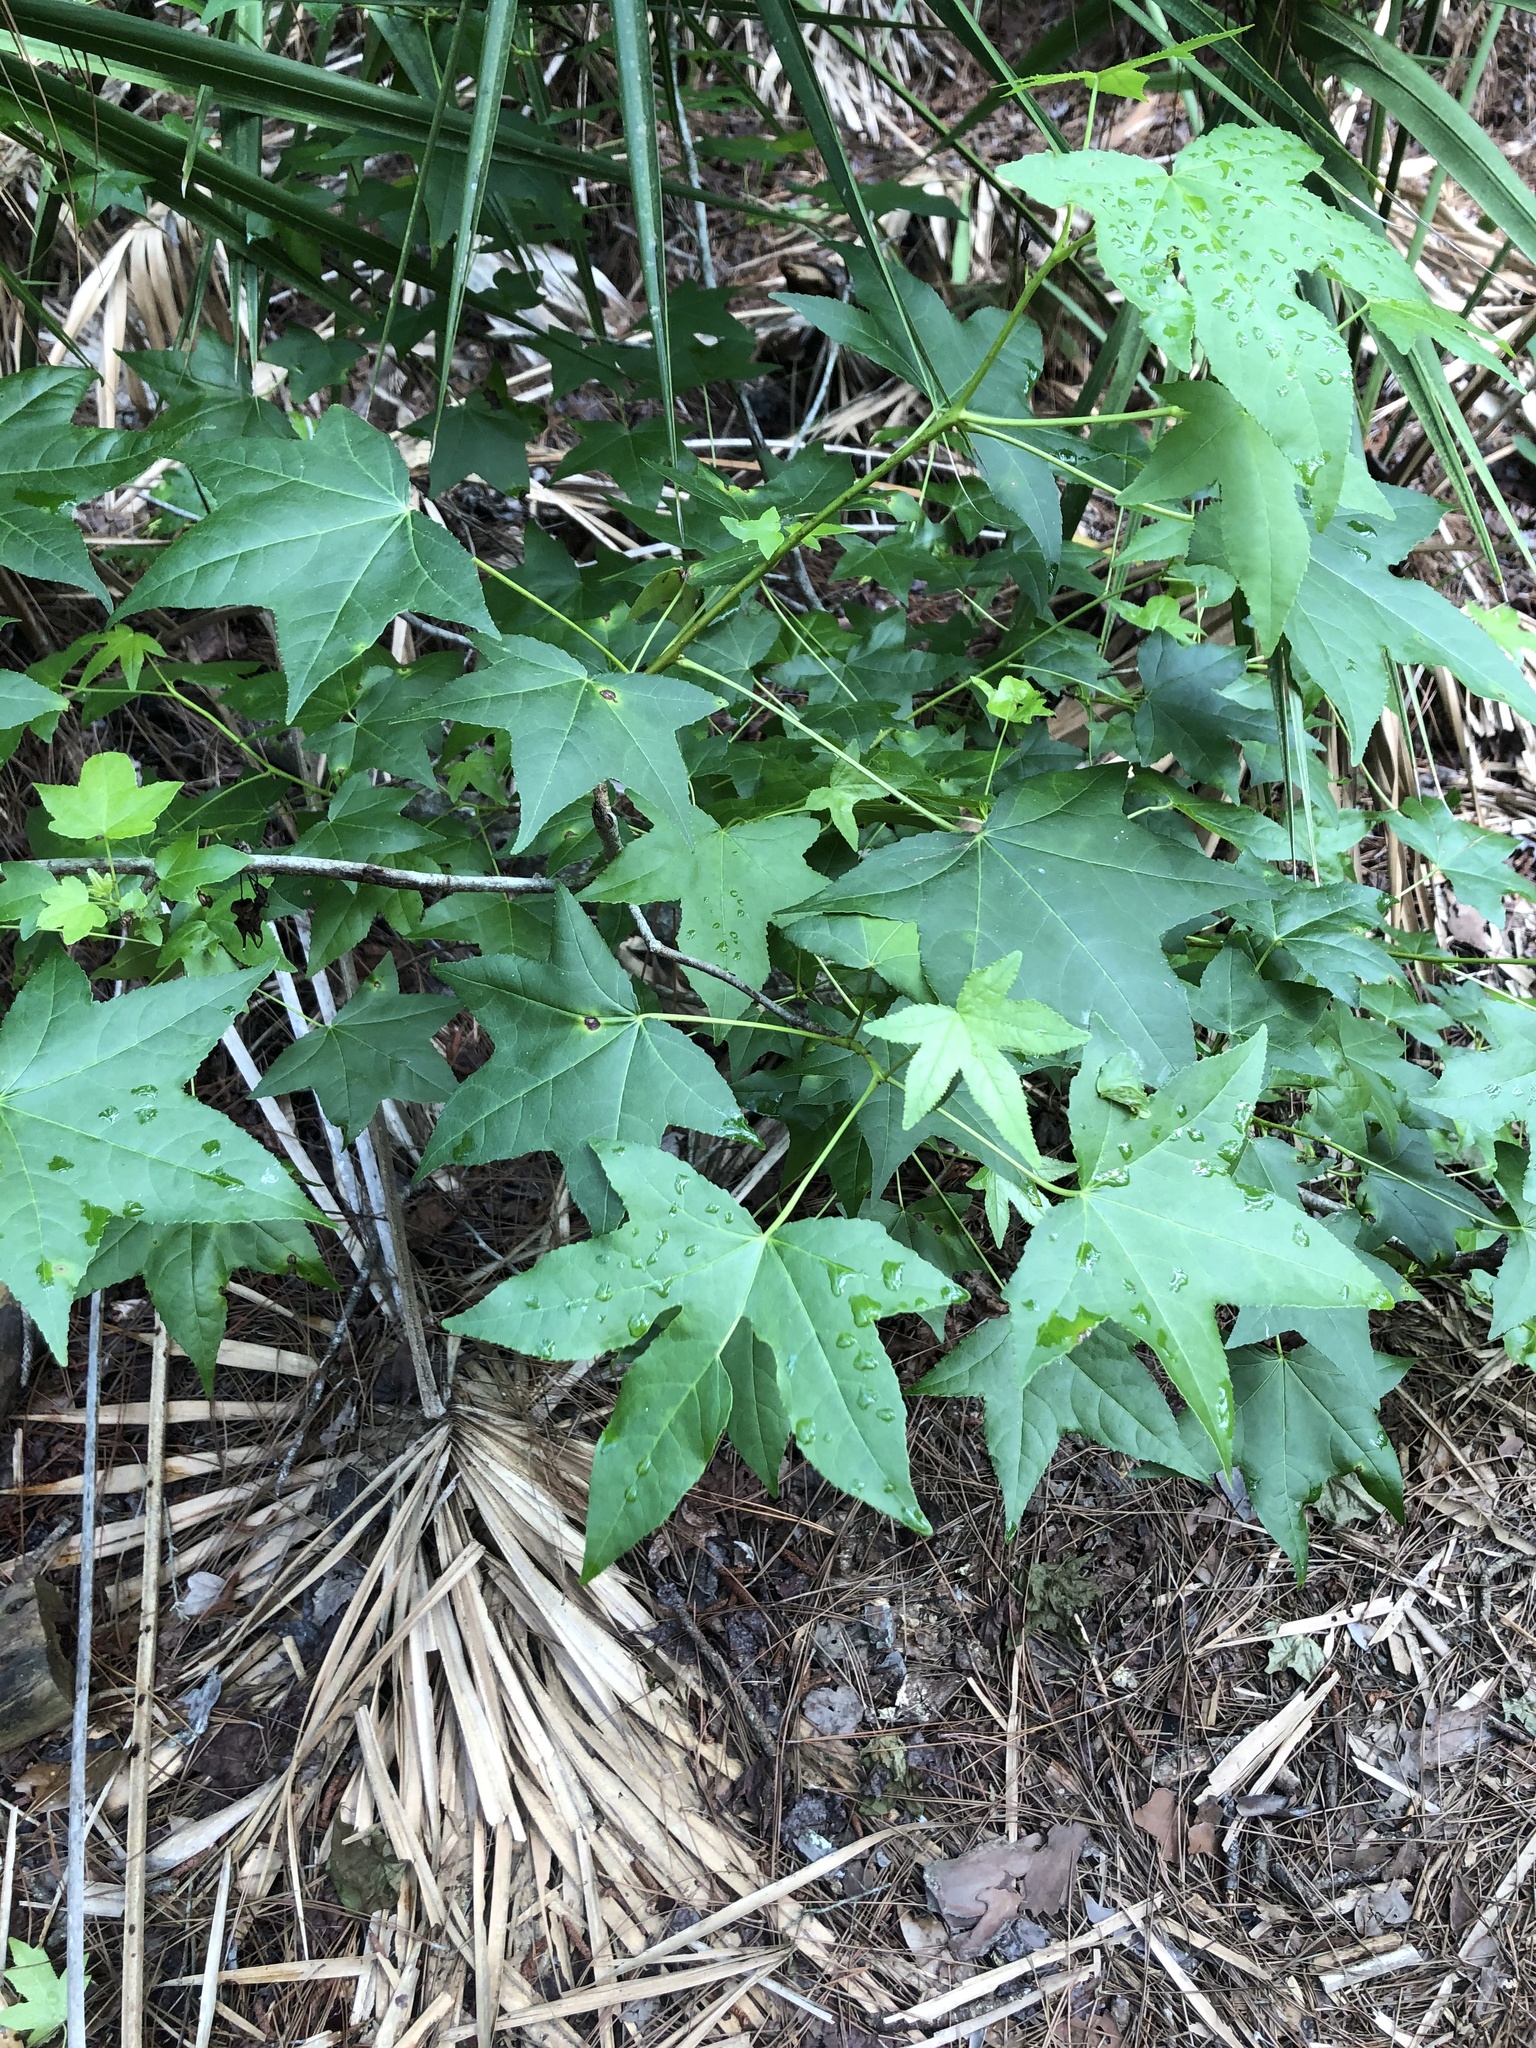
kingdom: Plantae
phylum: Tracheophyta
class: Magnoliopsida
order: Saxifragales
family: Altingiaceae
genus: Liquidambar
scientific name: Liquidambar styraciflua
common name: Sweet gum
